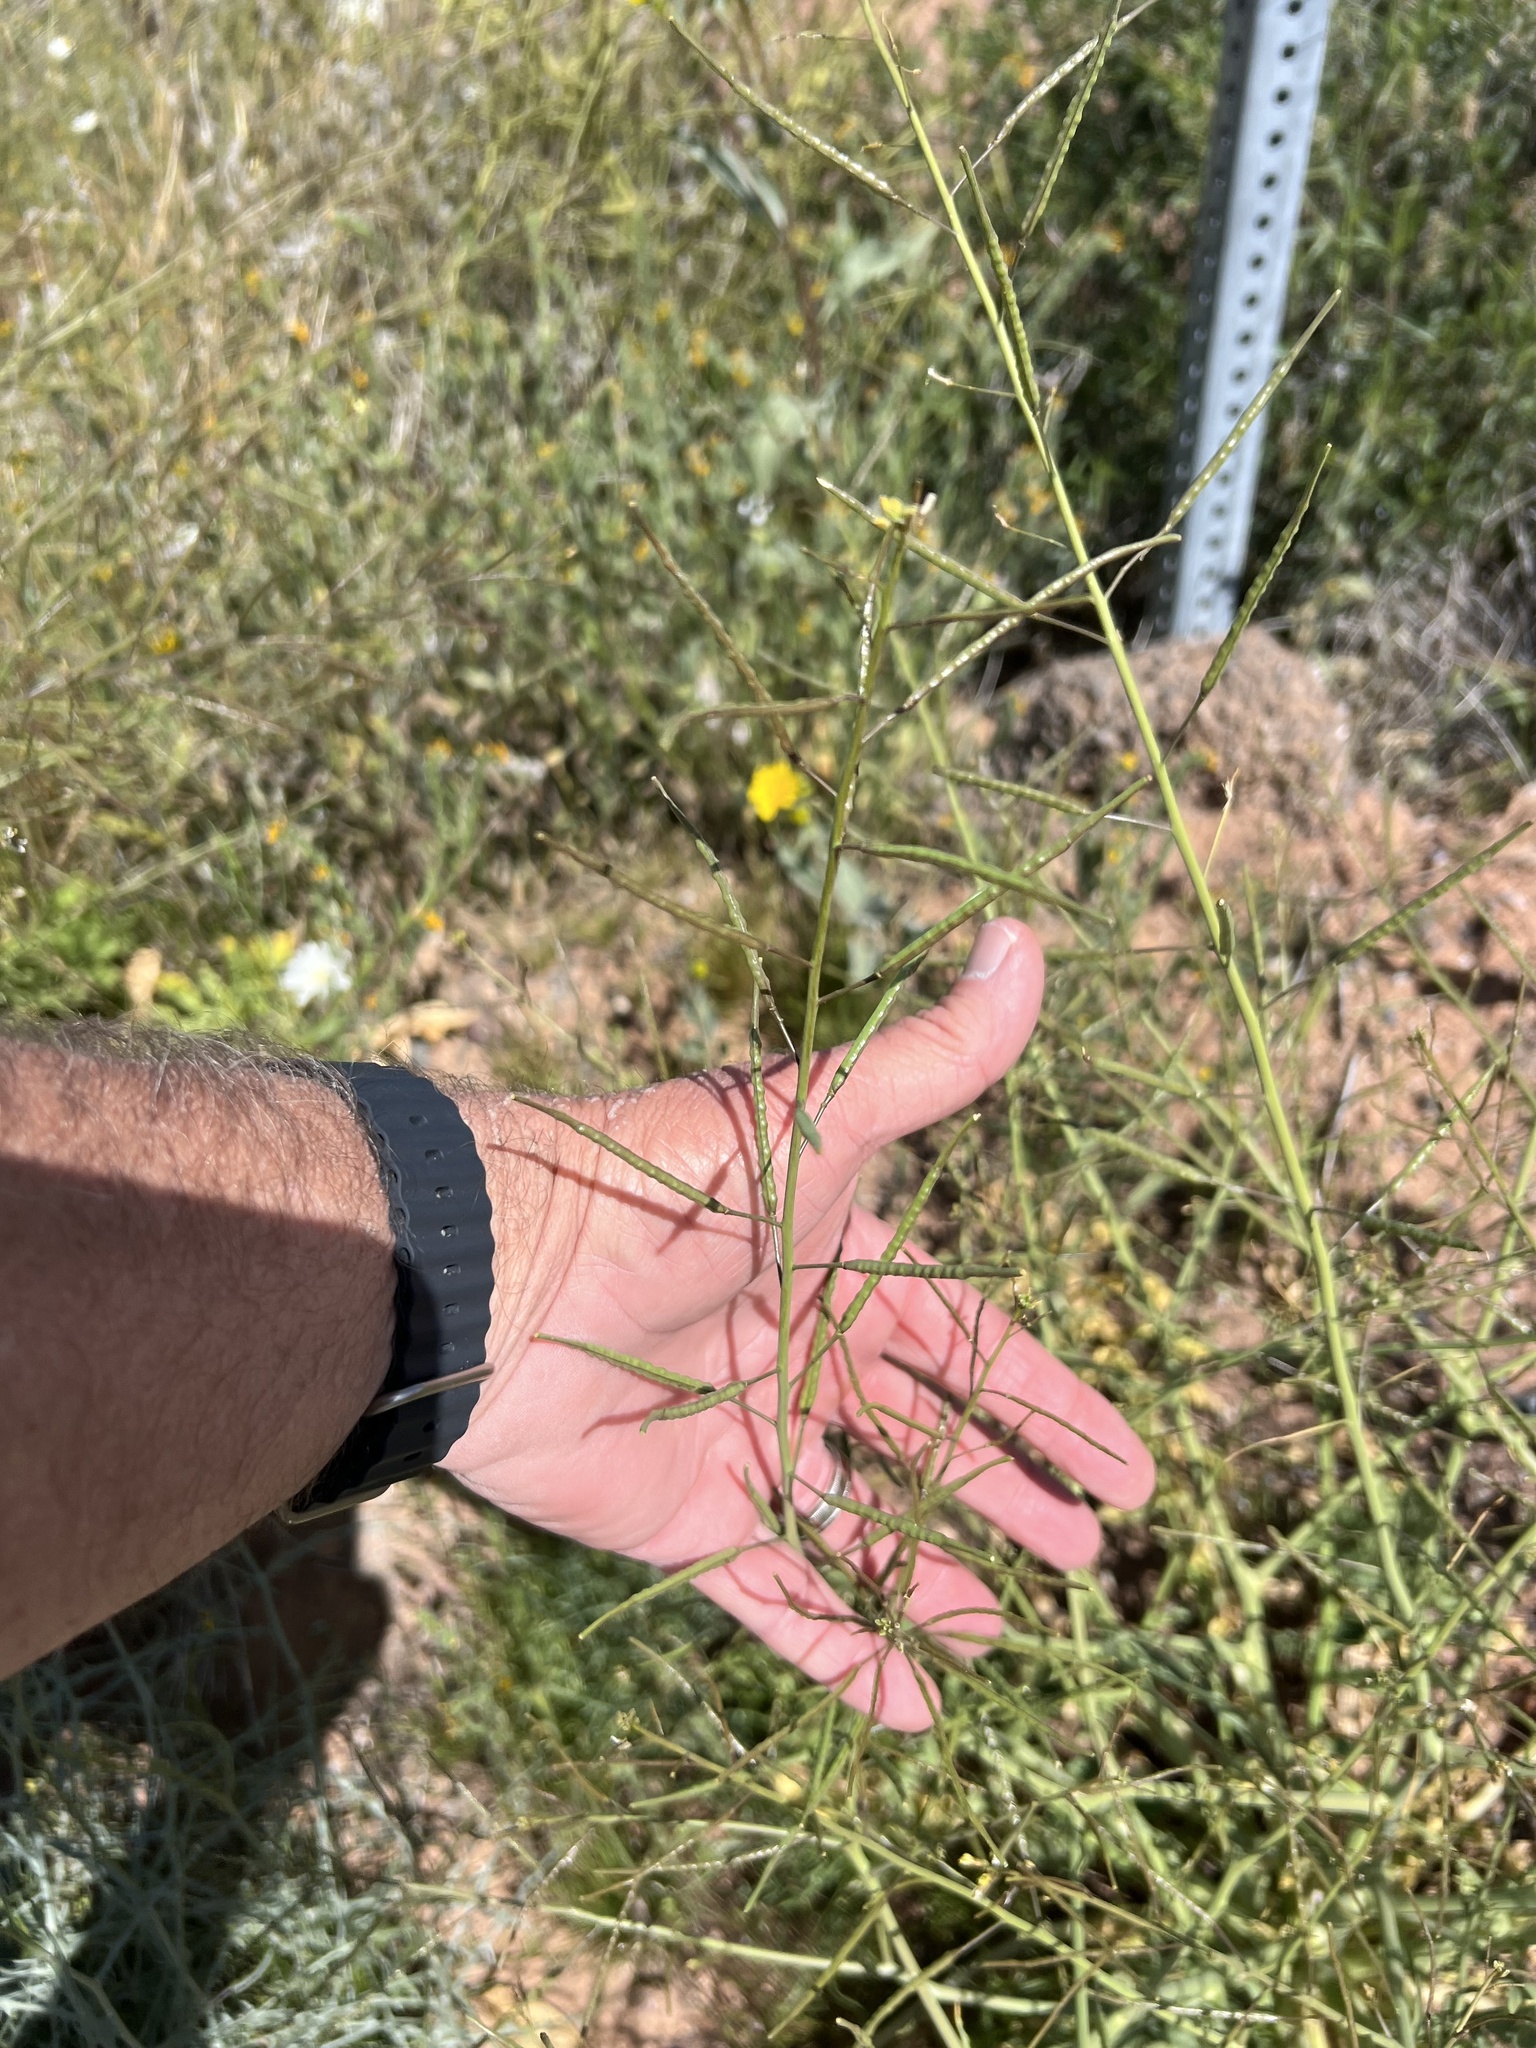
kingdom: Plantae
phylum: Tracheophyta
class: Magnoliopsida
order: Brassicales
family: Brassicaceae
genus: Brassica
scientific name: Brassica tournefortii
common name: Pale cabbage
